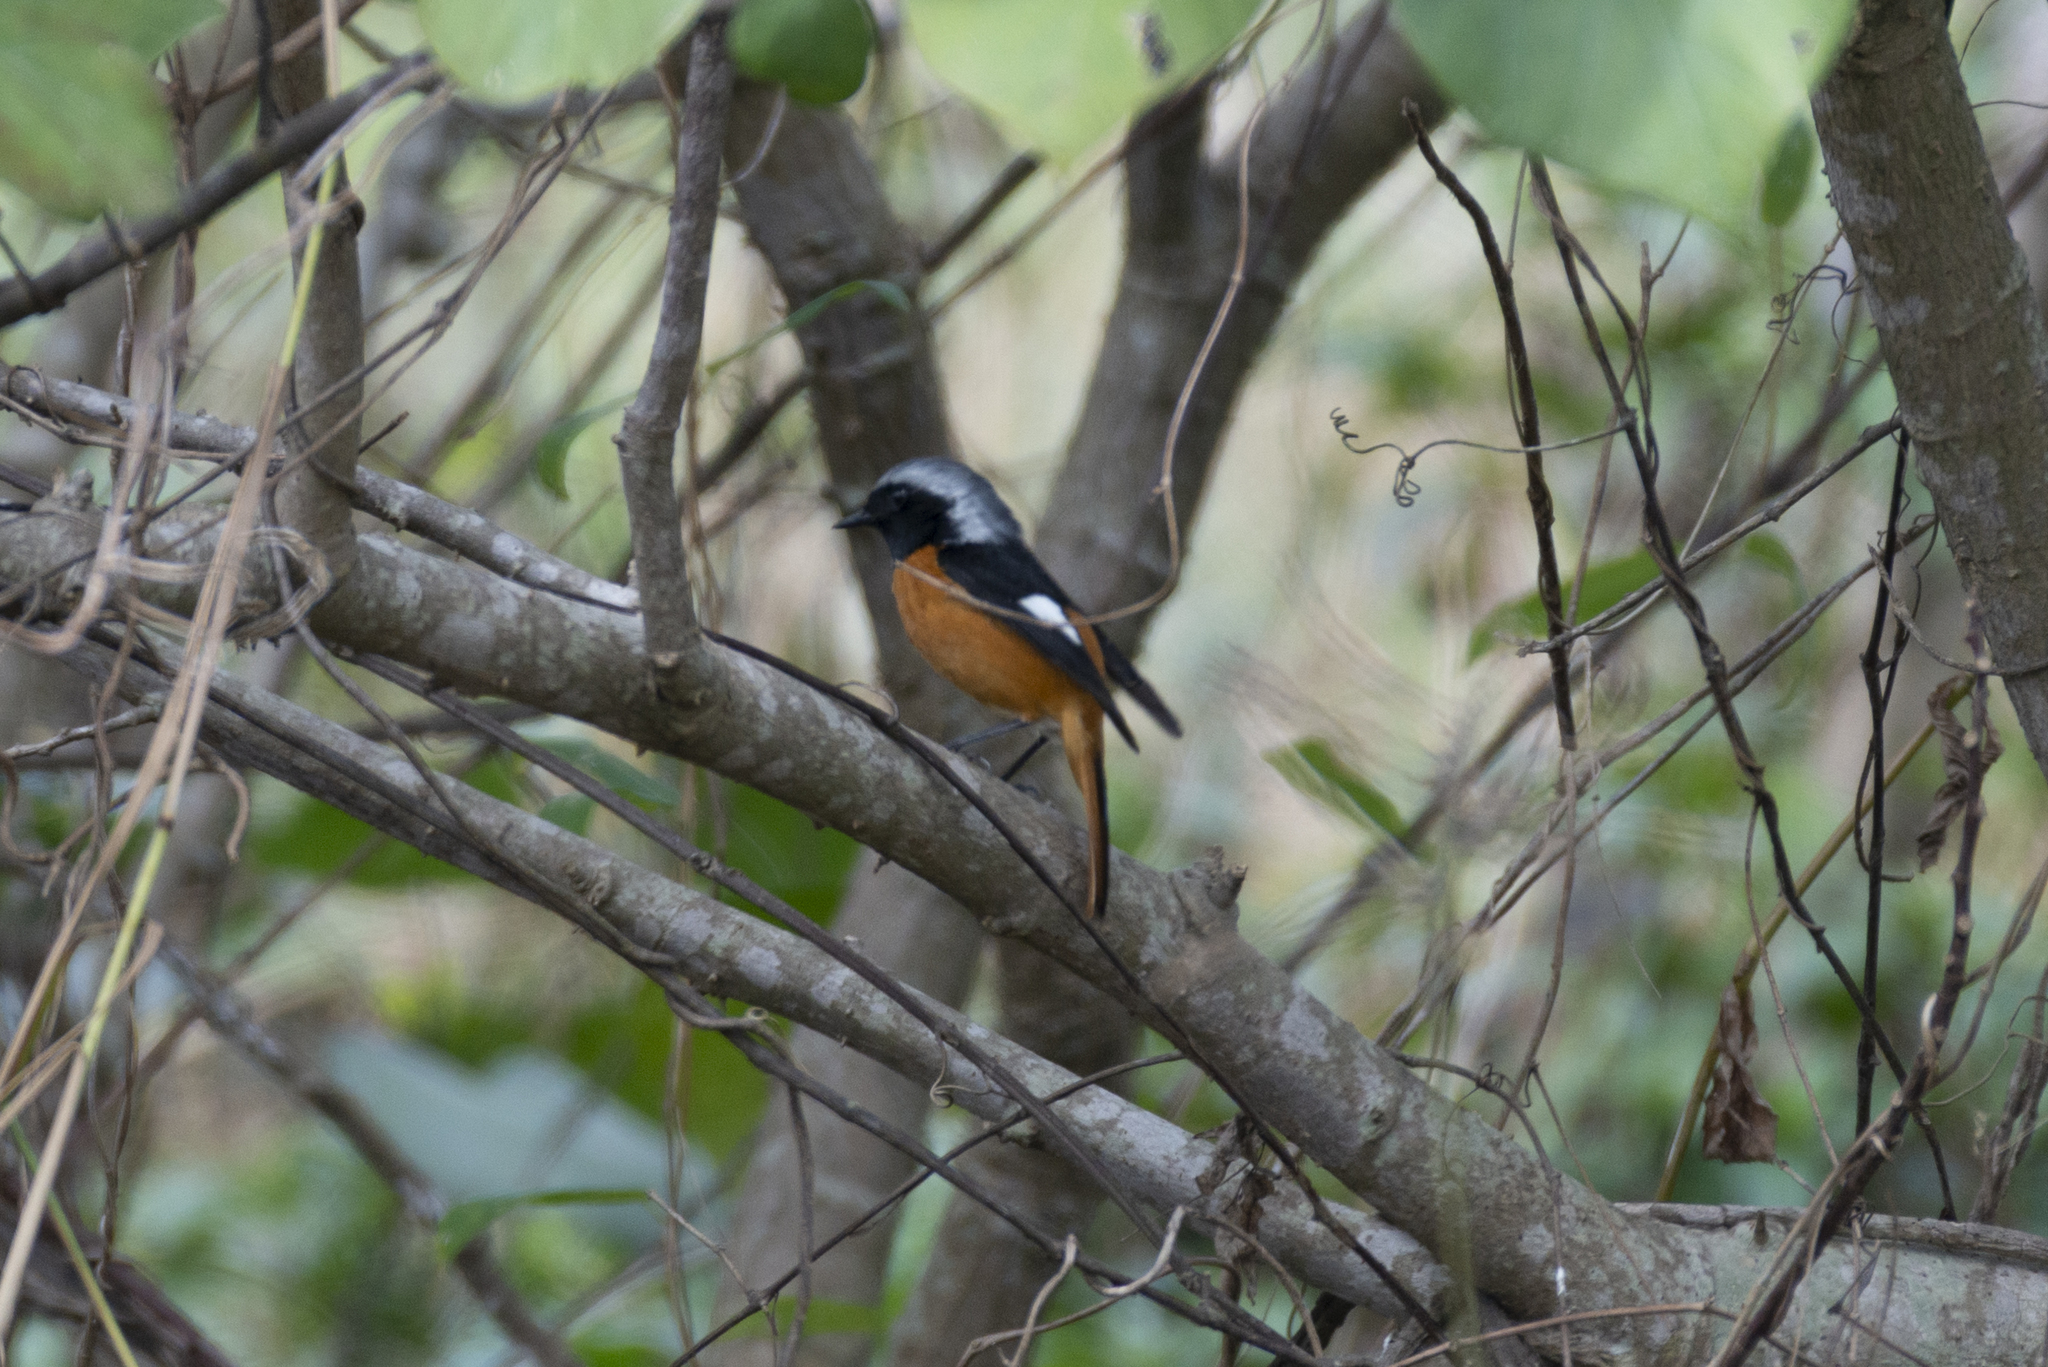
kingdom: Animalia
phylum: Chordata
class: Aves
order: Passeriformes
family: Muscicapidae
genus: Phoenicurus
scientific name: Phoenicurus auroreus
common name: Daurian redstart
